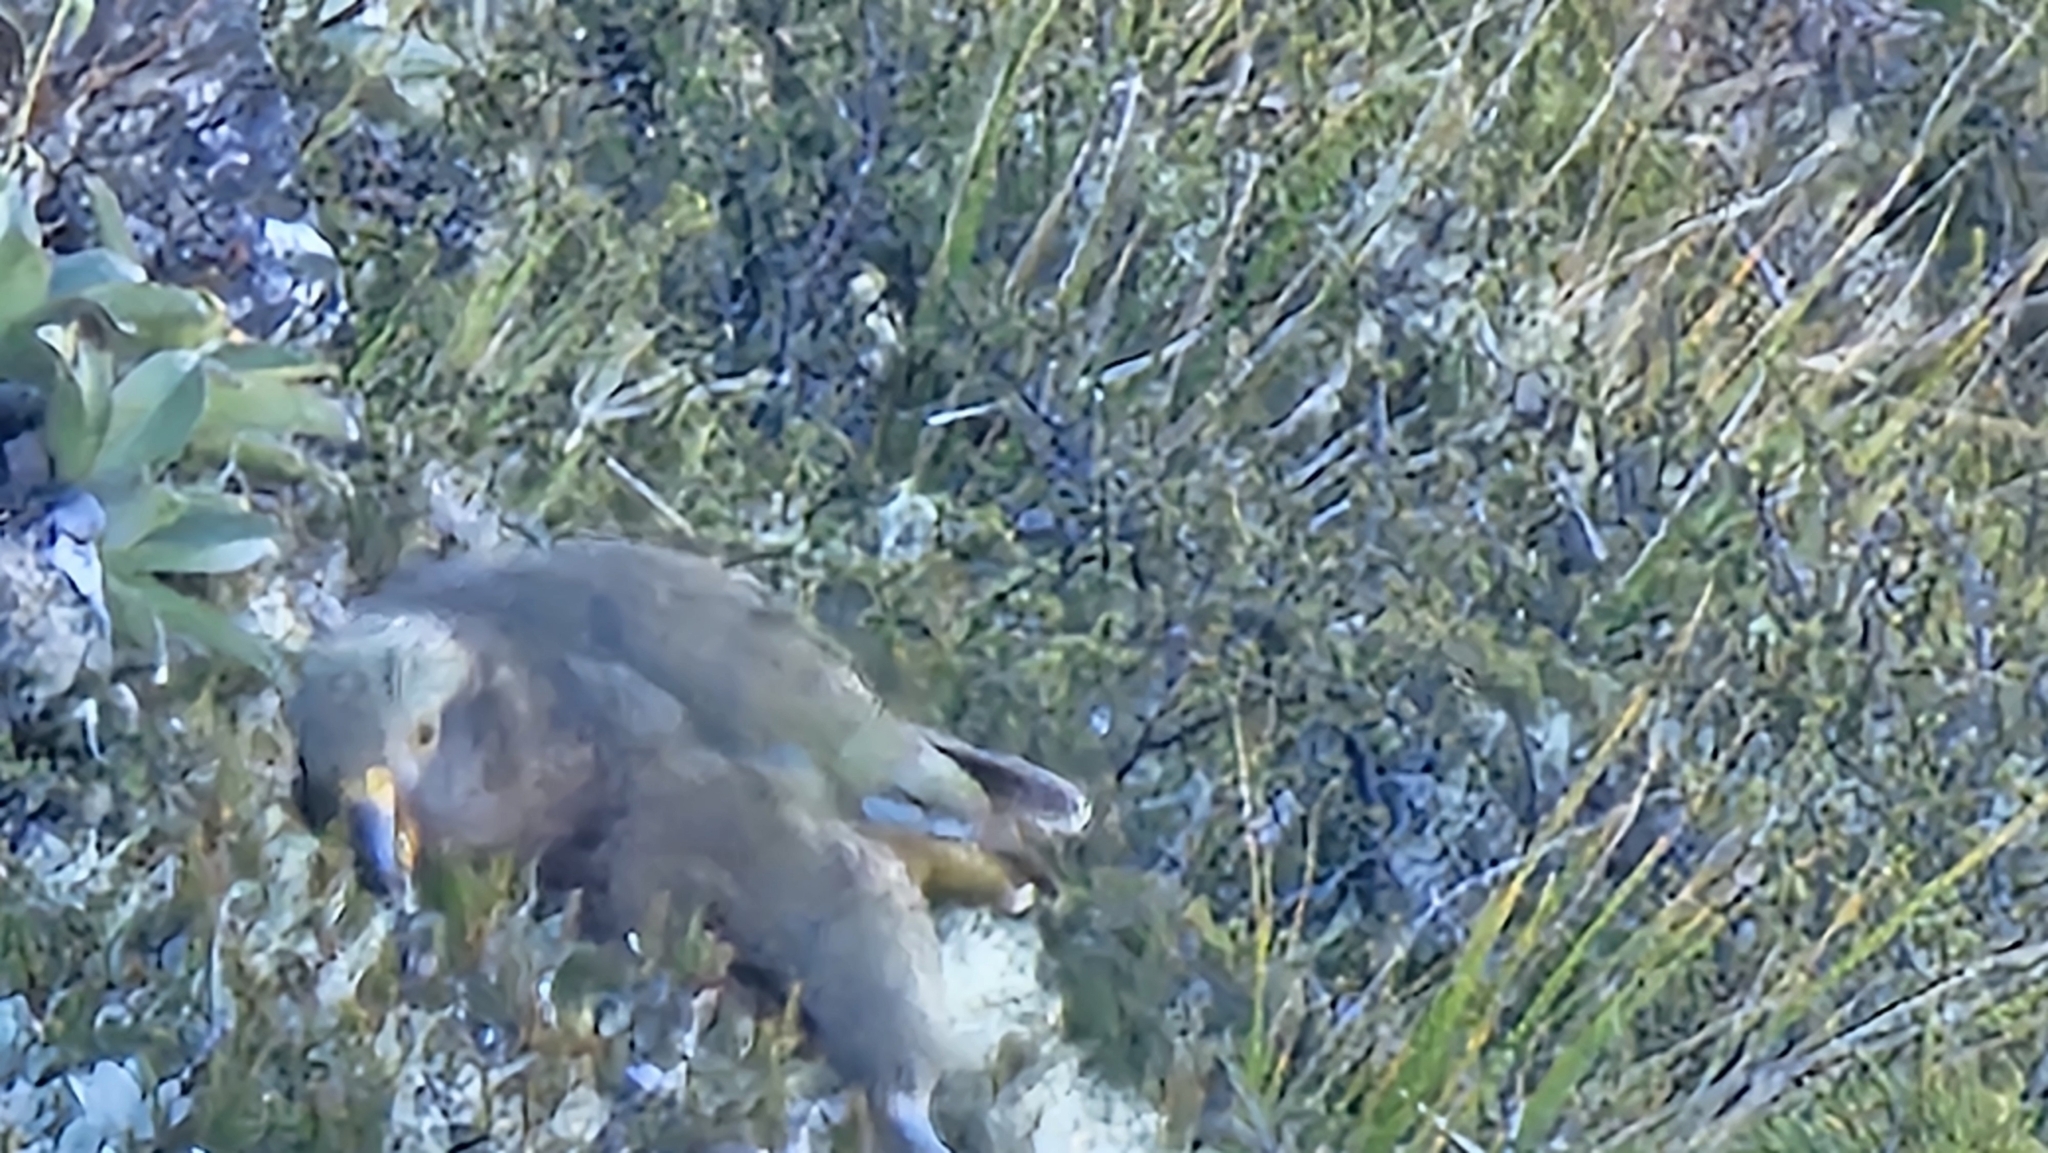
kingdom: Animalia
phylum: Chordata
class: Aves
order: Psittaciformes
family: Psittacidae
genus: Nestor
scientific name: Nestor notabilis
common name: Kea
